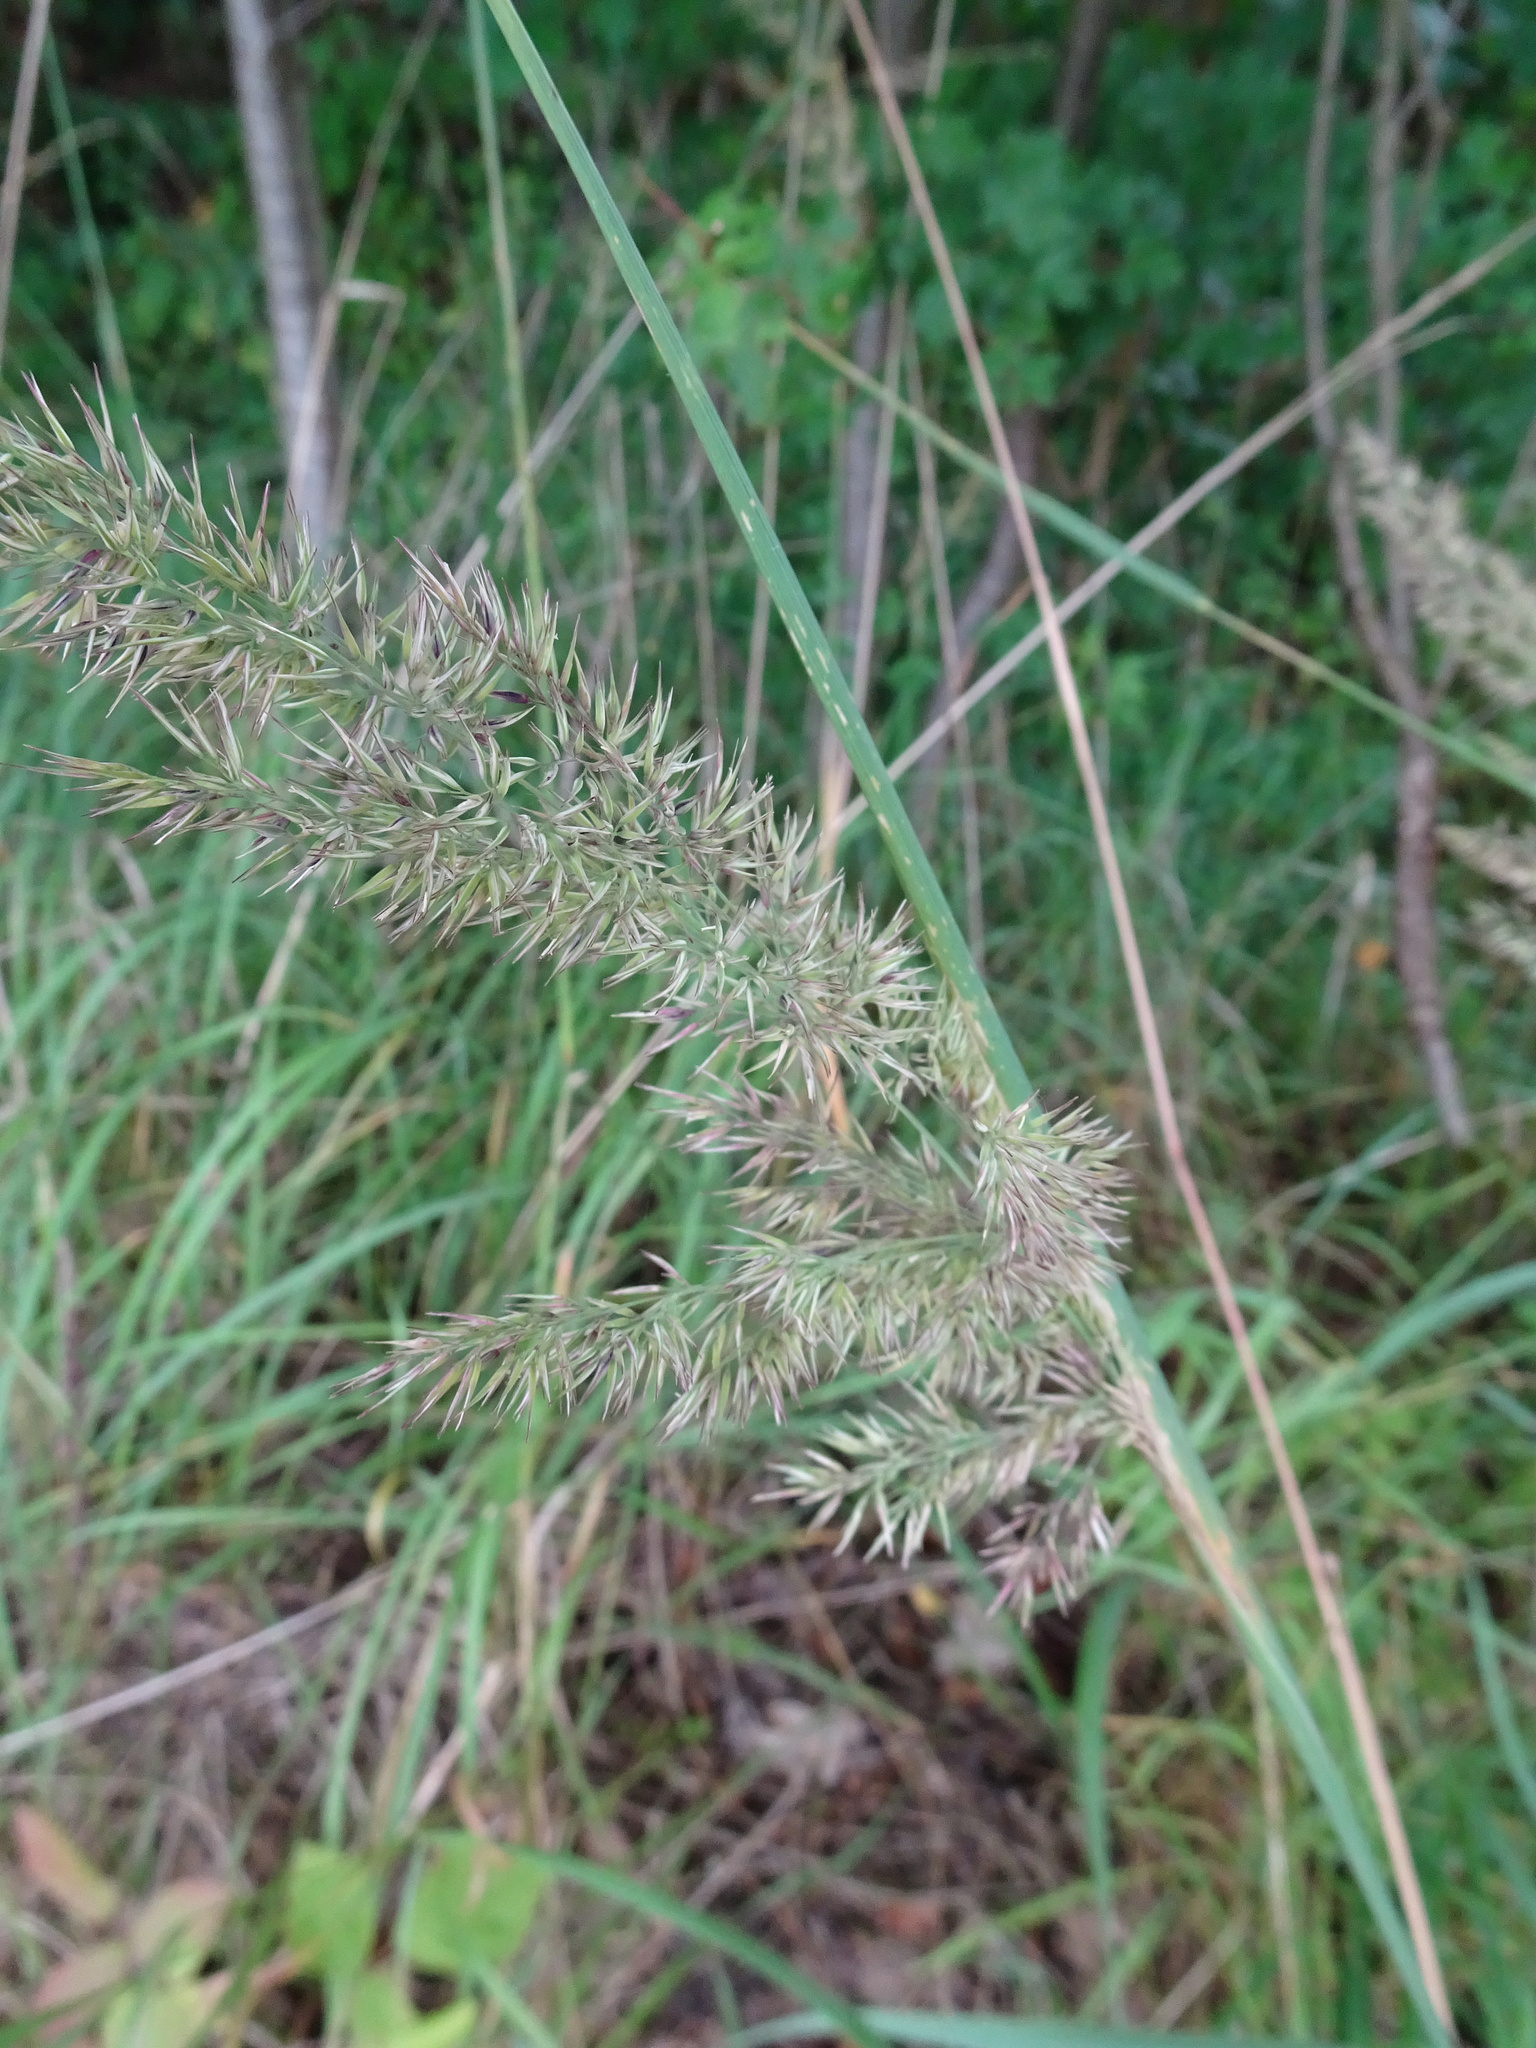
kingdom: Plantae
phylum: Tracheophyta
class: Liliopsida
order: Poales
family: Poaceae
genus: Calamagrostis
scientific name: Calamagrostis epigejos
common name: Wood small-reed
